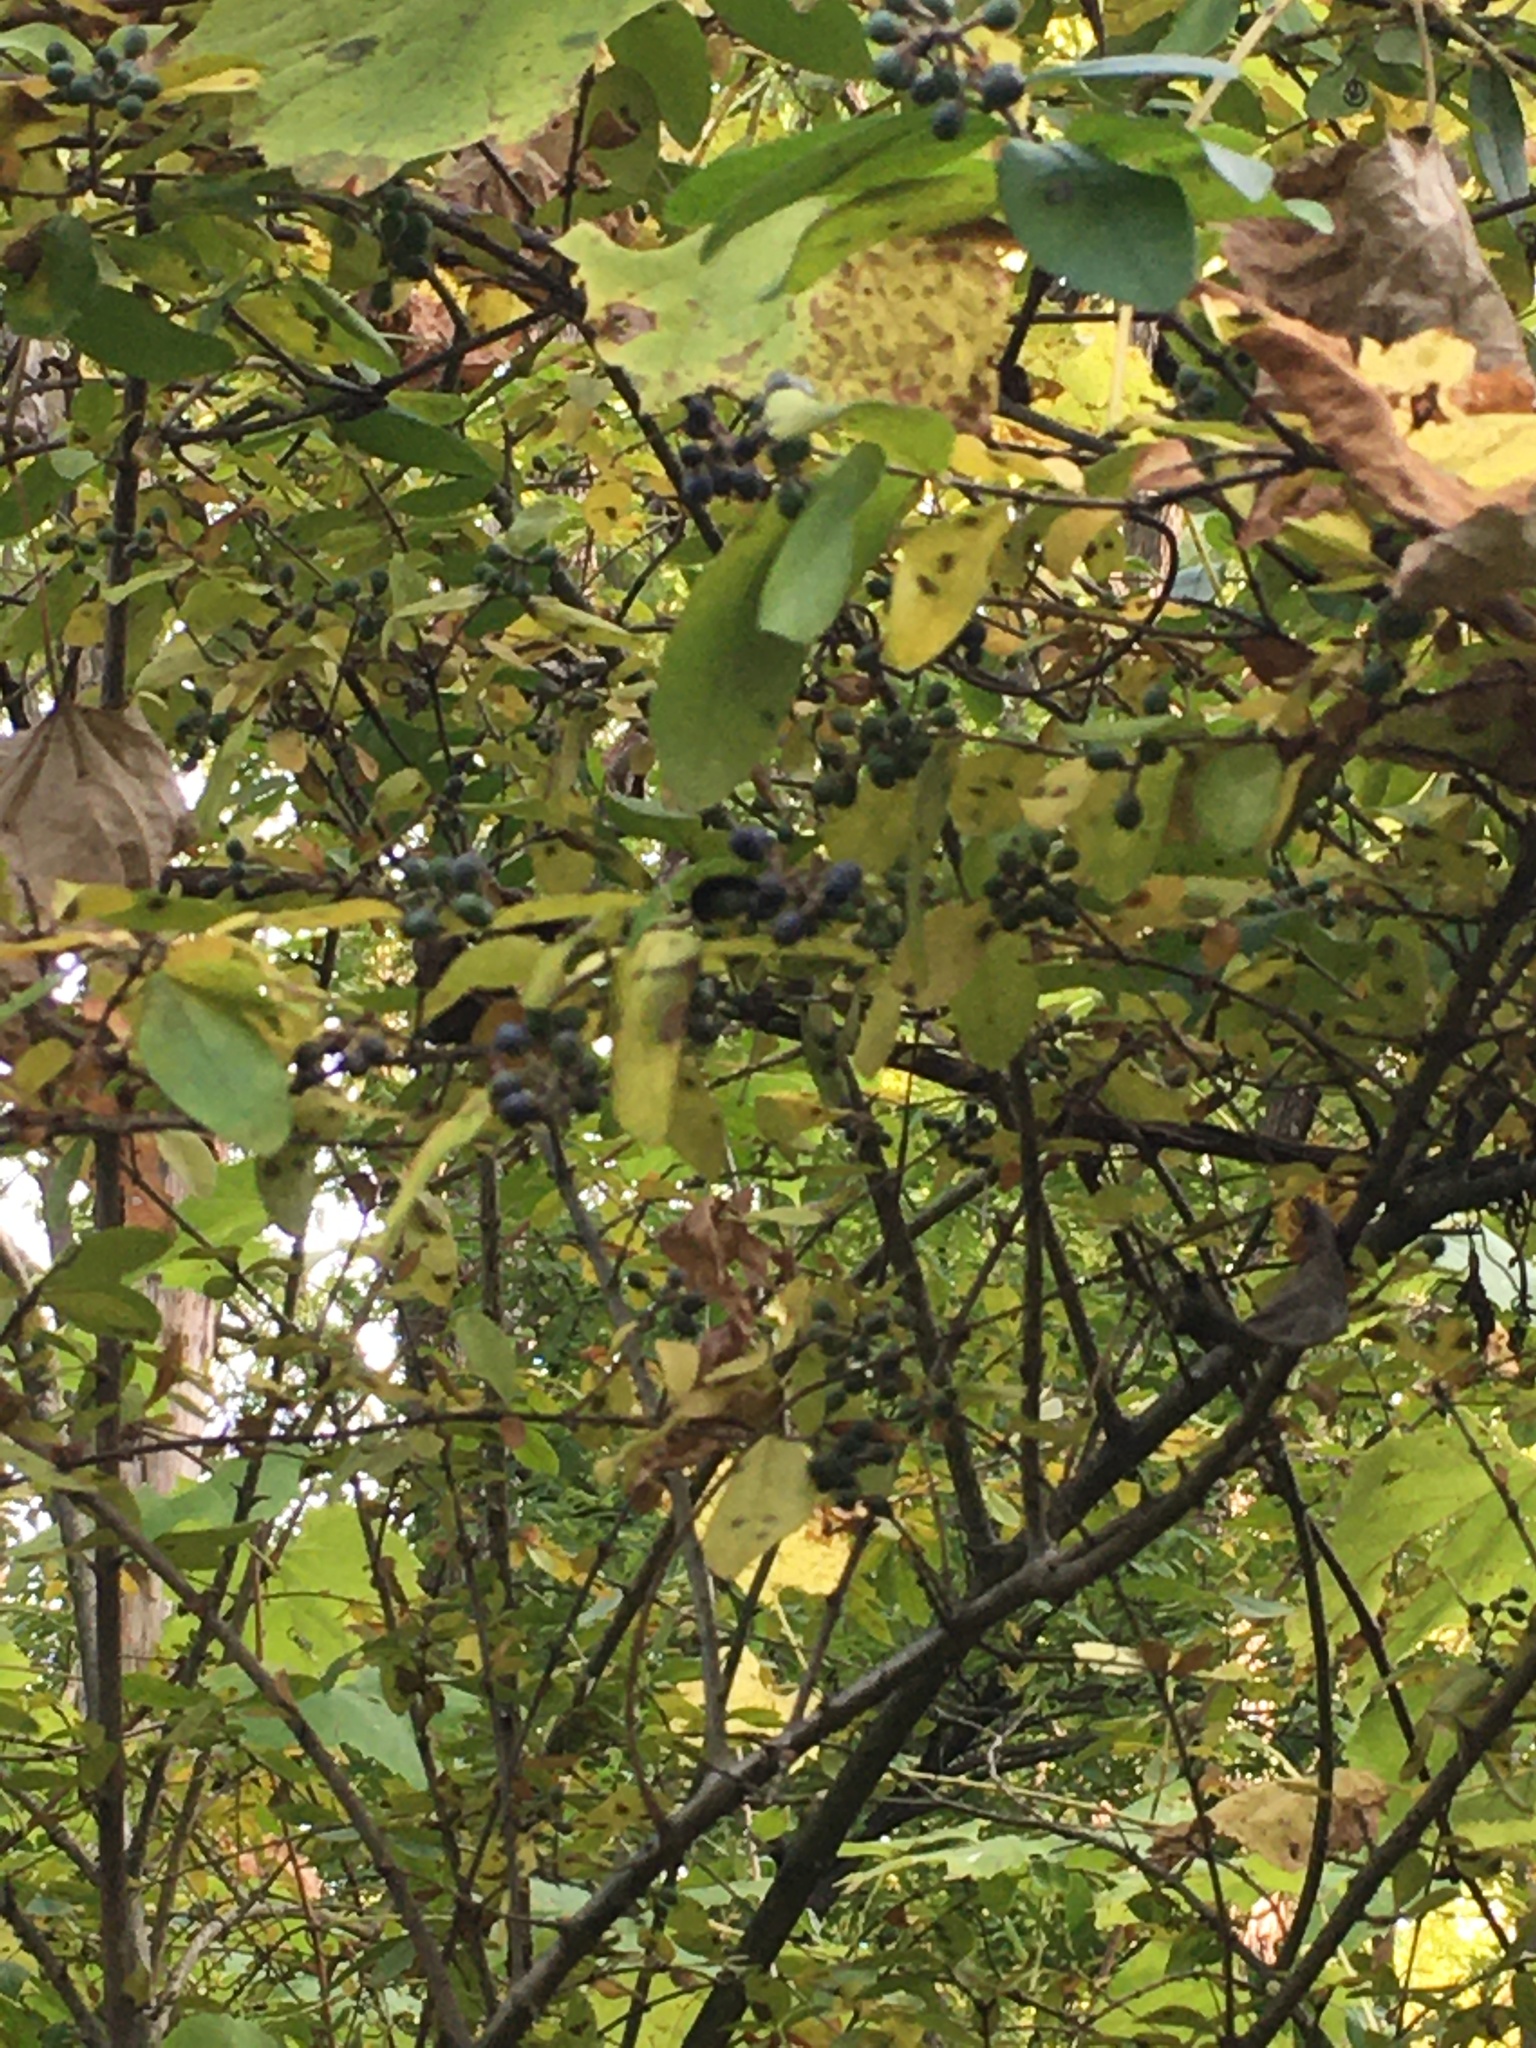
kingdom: Plantae
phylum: Tracheophyta
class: Magnoliopsida
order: Lamiales
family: Oleaceae
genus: Ligustrum
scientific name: Ligustrum obtusifolium
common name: Border privet
